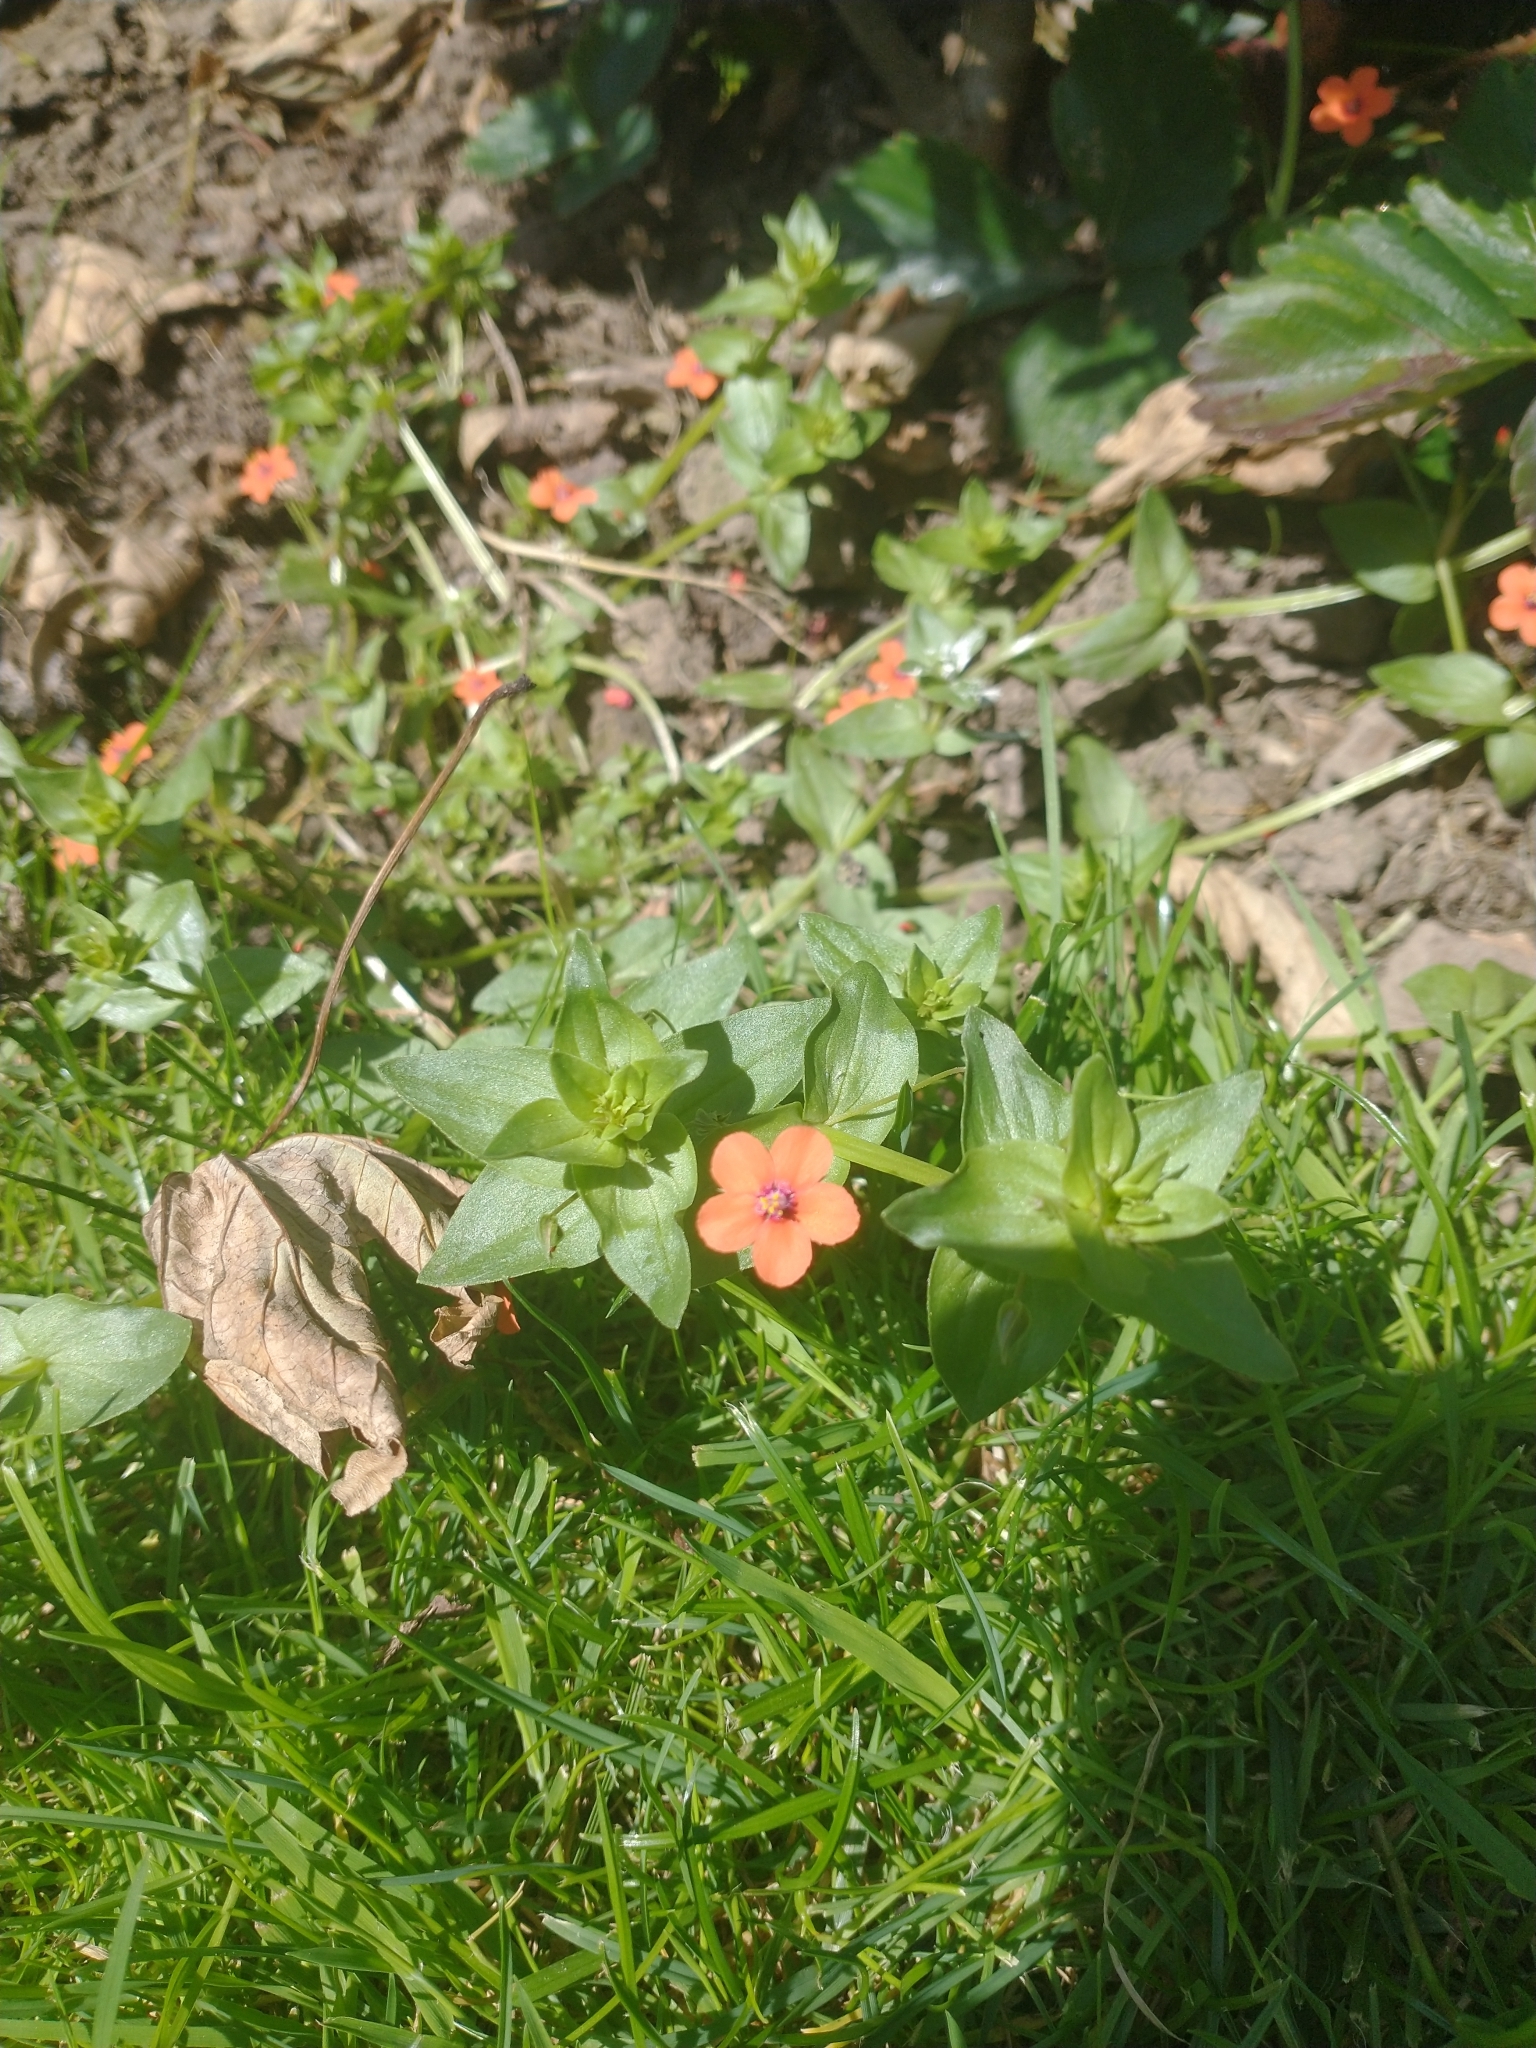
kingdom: Plantae
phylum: Tracheophyta
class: Magnoliopsida
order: Ericales
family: Primulaceae
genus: Lysimachia
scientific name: Lysimachia arvensis
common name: Scarlet pimpernel
